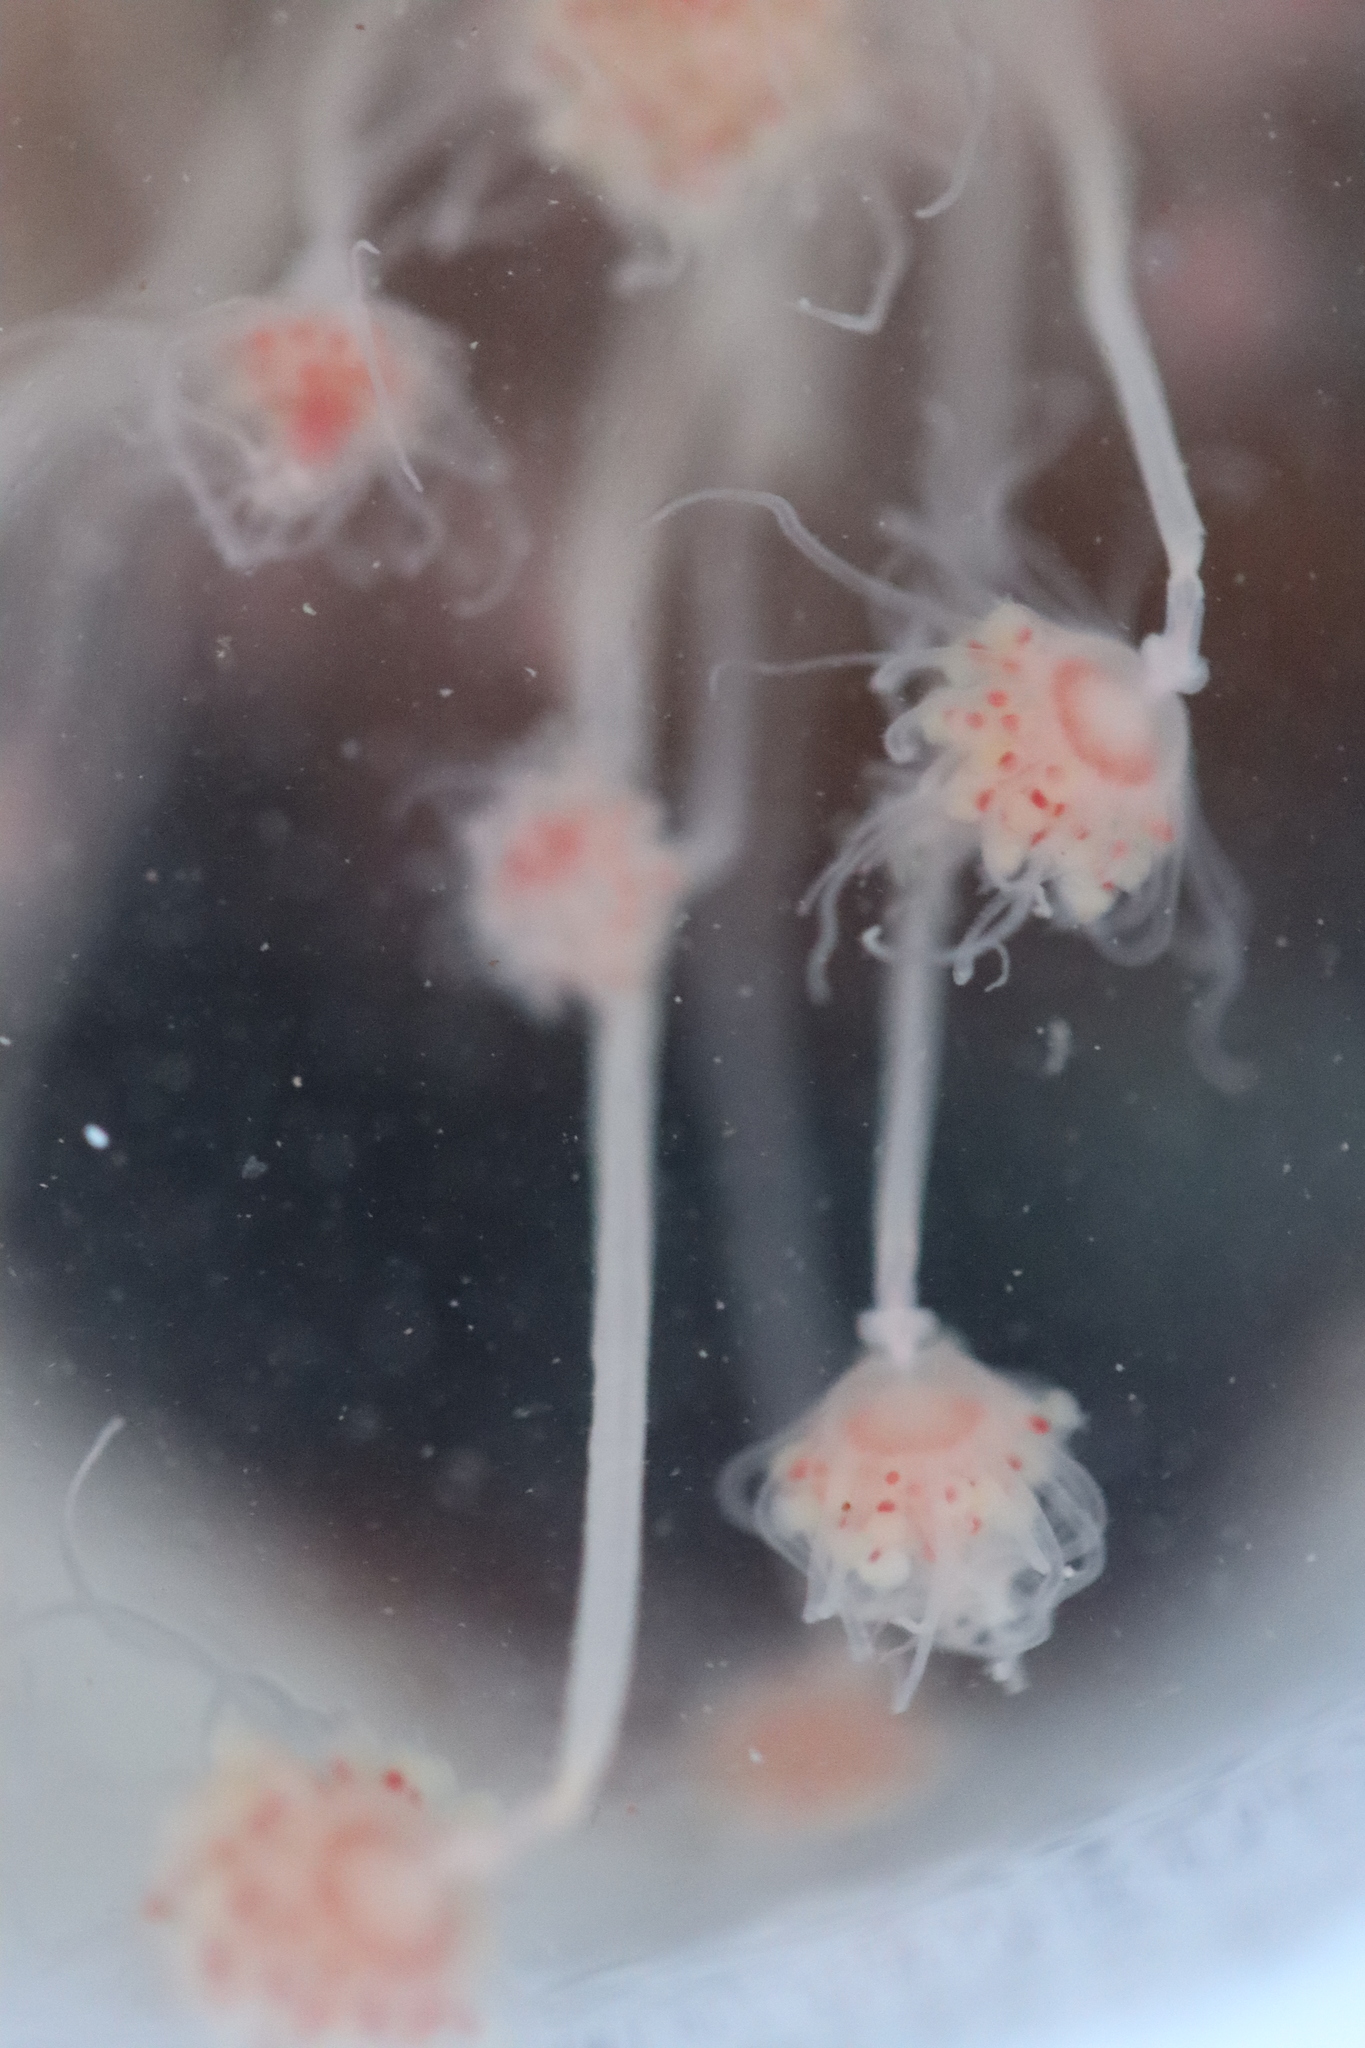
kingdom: Animalia
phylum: Cnidaria
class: Hydrozoa
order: Anthoathecata
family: Tubulariidae
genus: Ectopleura
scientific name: Ectopleura larynx
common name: Ringed tubularia
